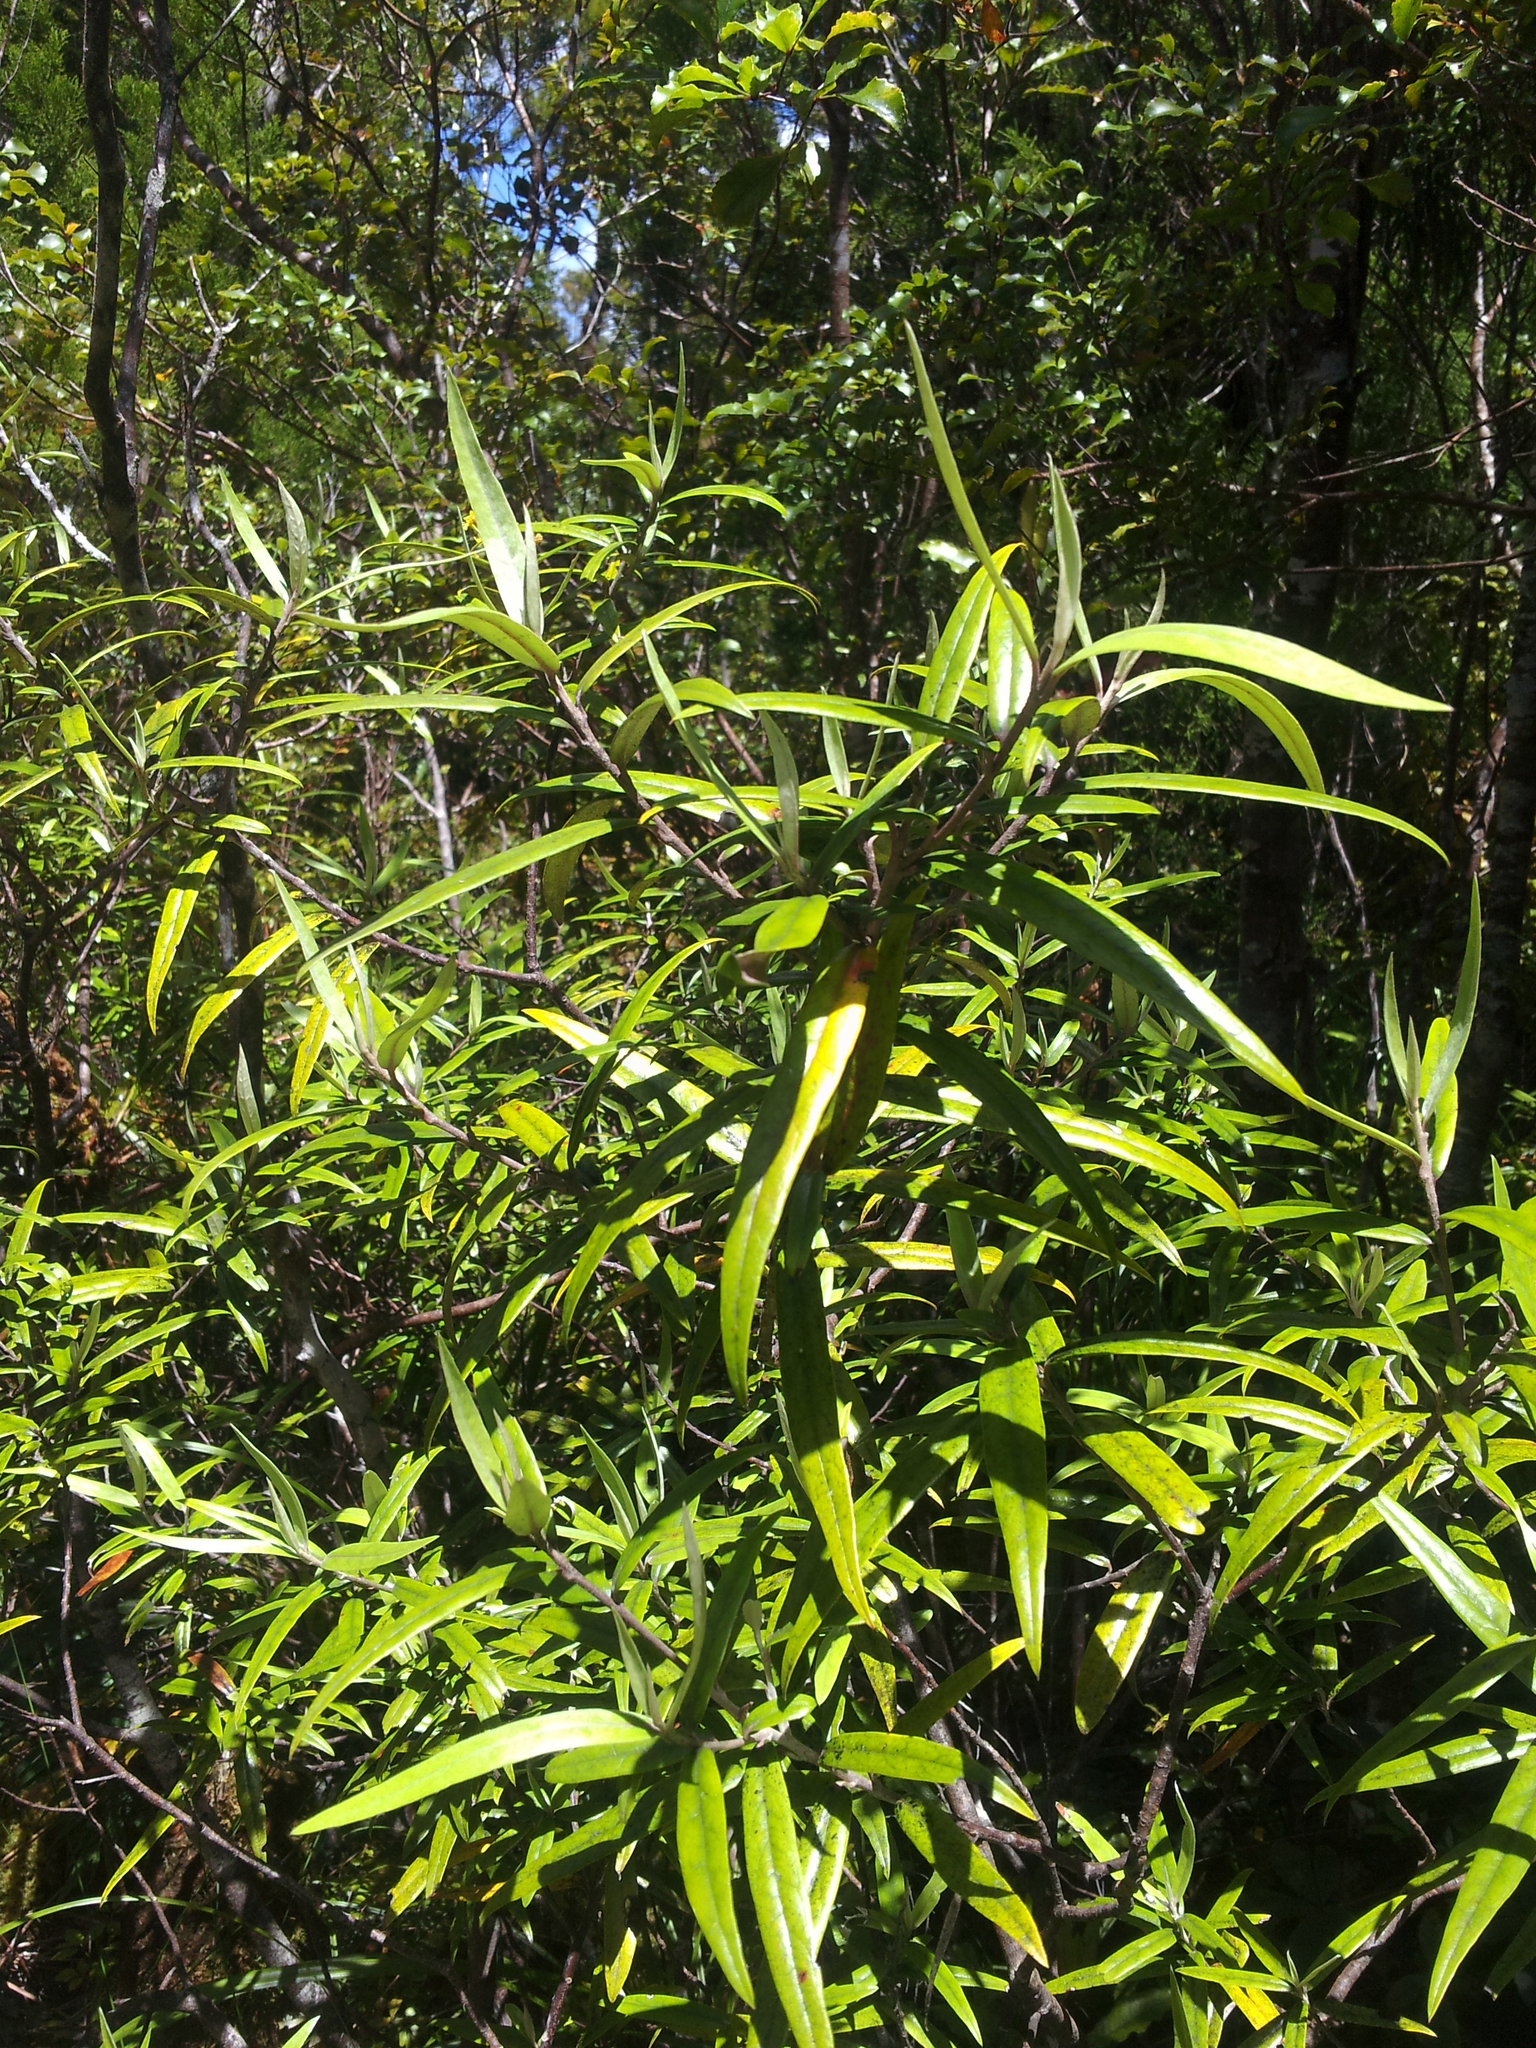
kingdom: Plantae
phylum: Tracheophyta
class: Magnoliopsida
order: Asterales
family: Argophyllaceae
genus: Corokia
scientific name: Corokia buddleioides
